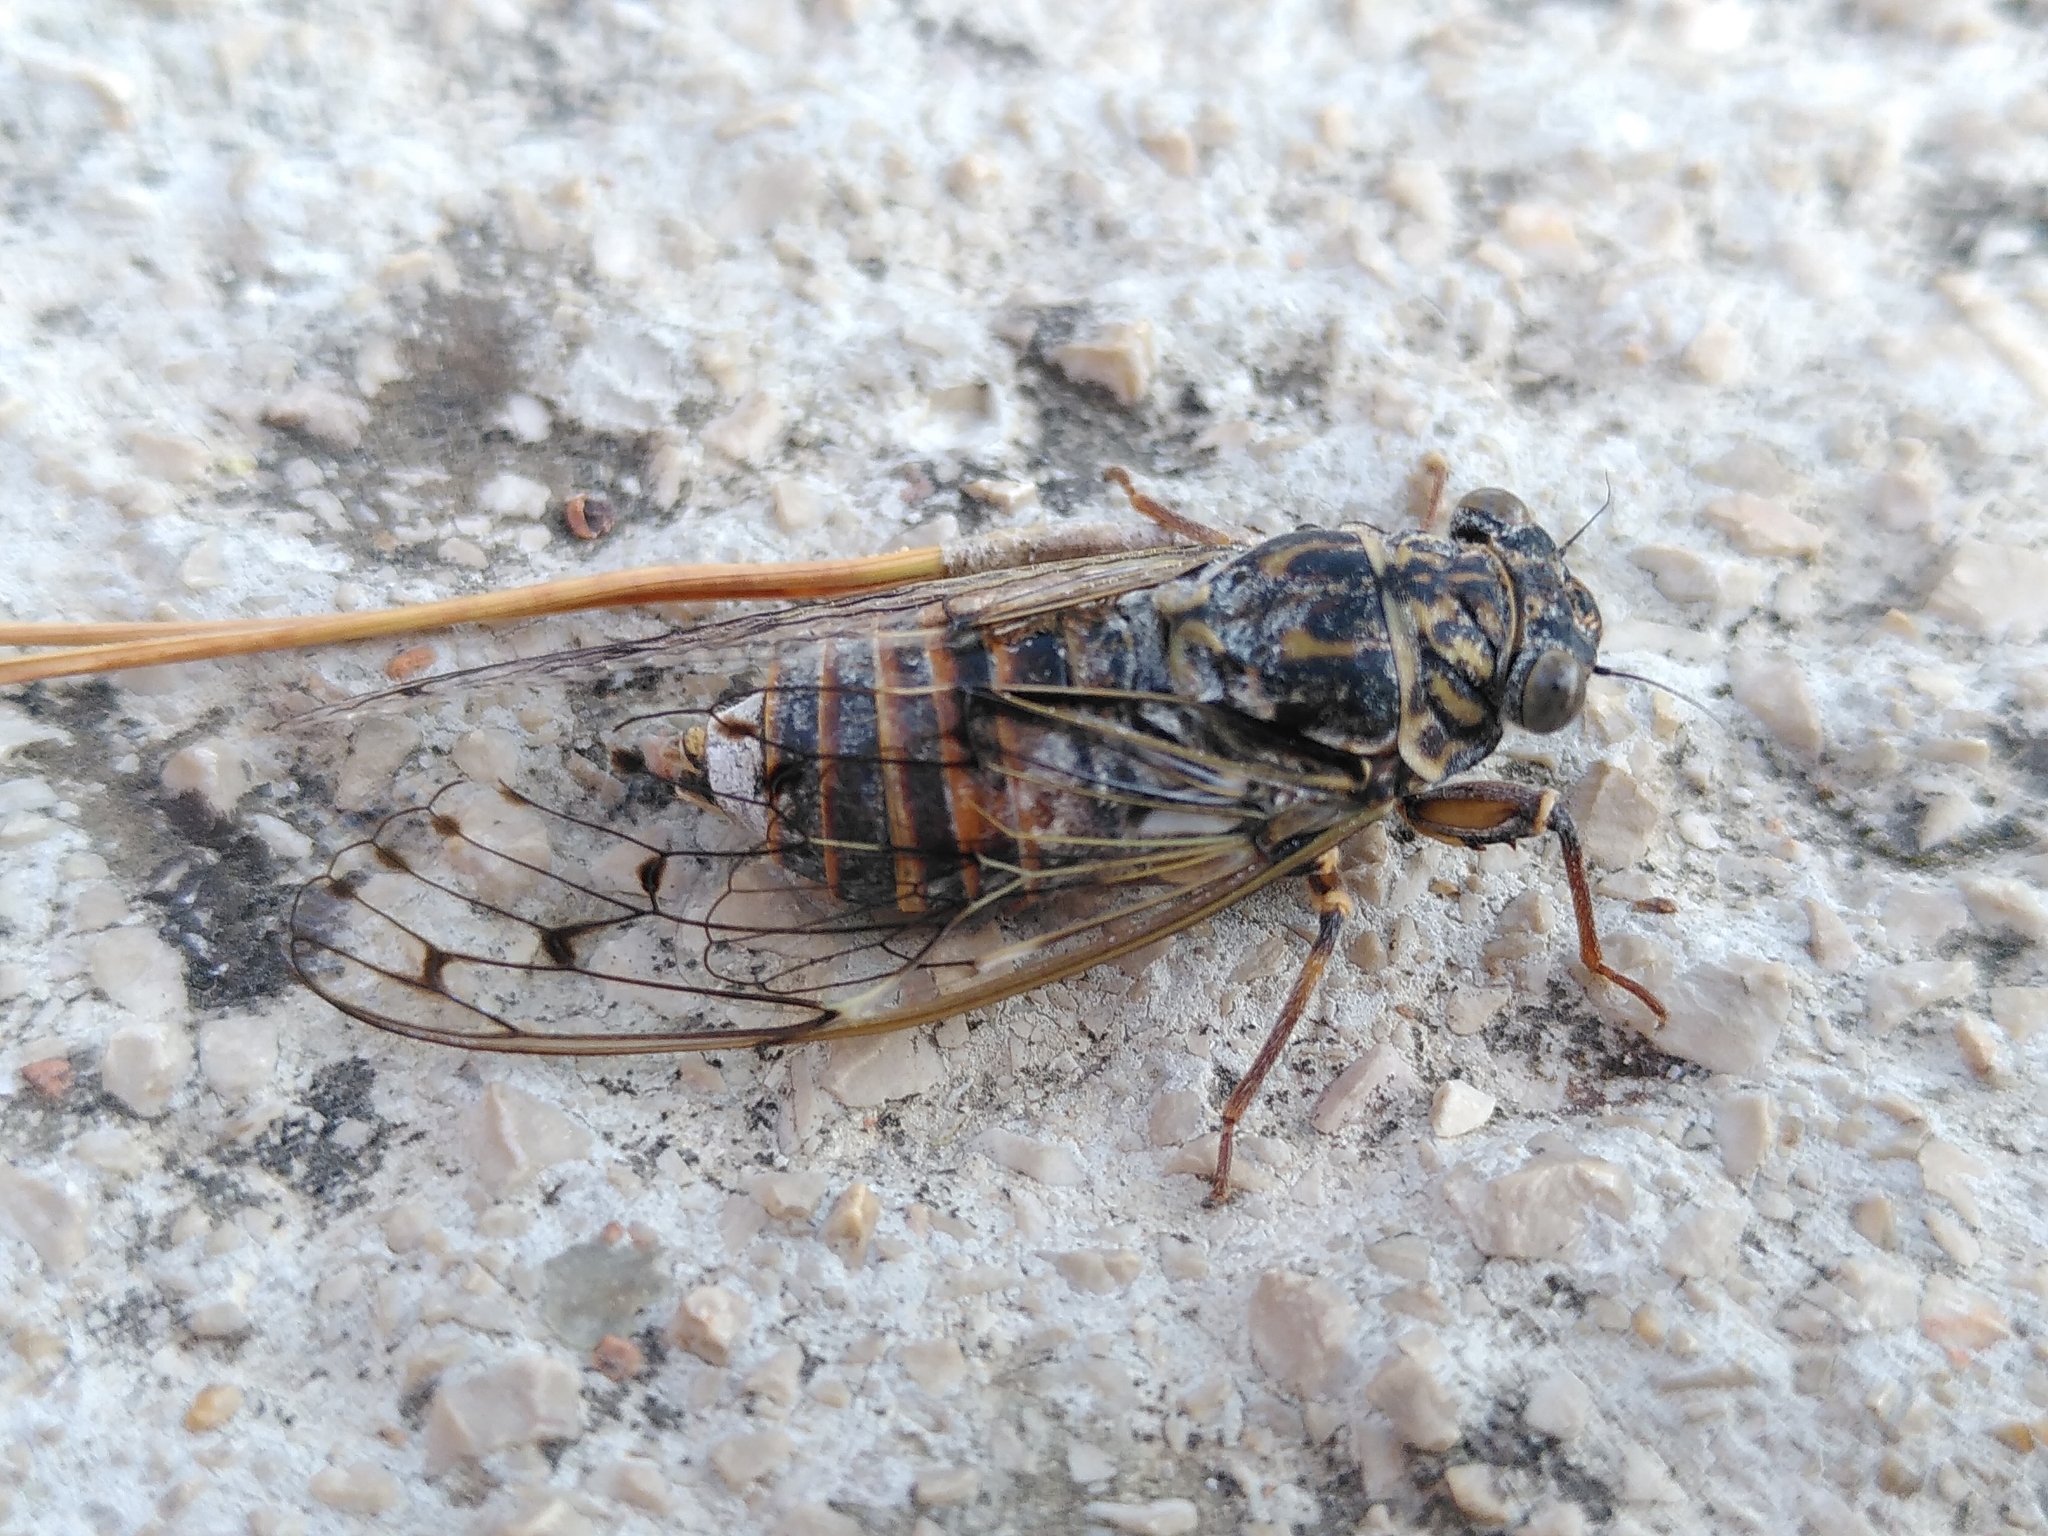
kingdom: Animalia
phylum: Arthropoda
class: Insecta
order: Hemiptera
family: Cicadidae
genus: Cicada
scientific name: Cicada orni
